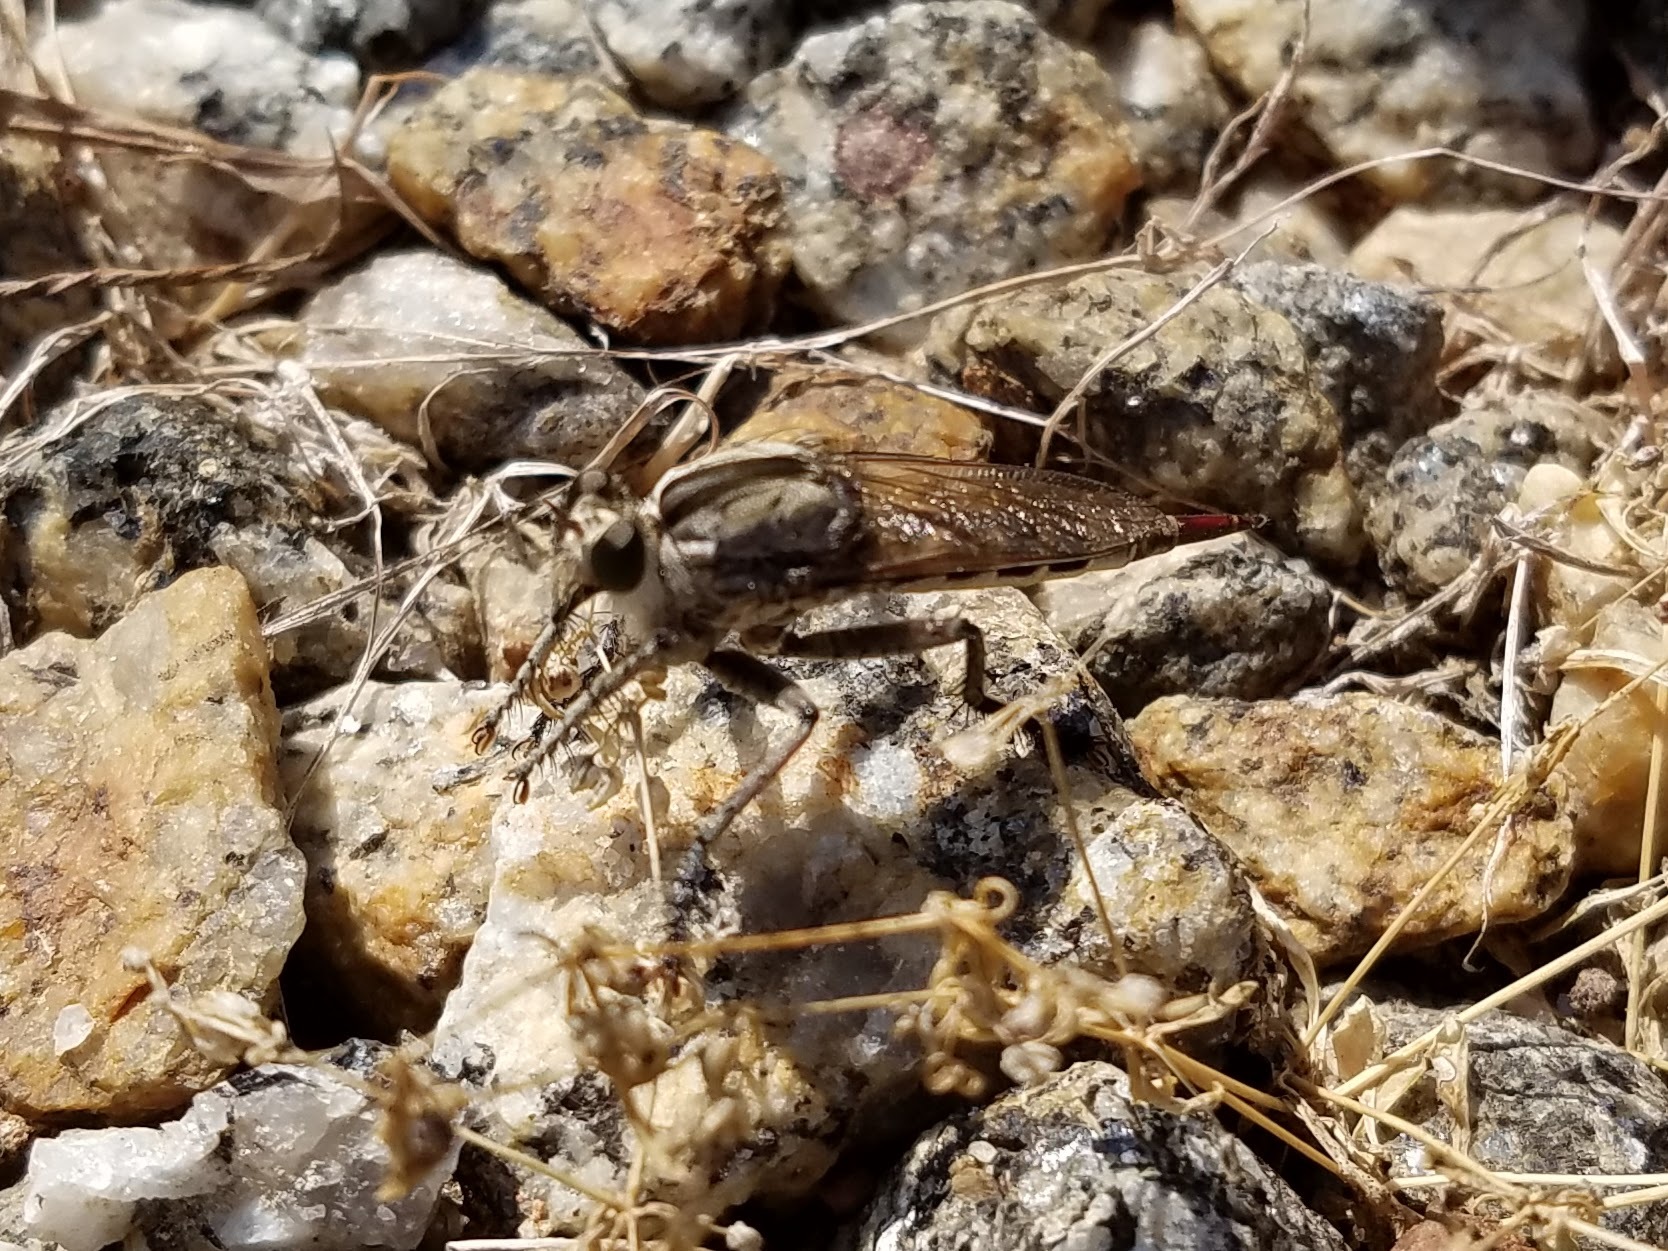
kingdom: Animalia
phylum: Arthropoda
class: Insecta
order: Diptera
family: Asilidae
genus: Triorla
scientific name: Triorla interrupta
